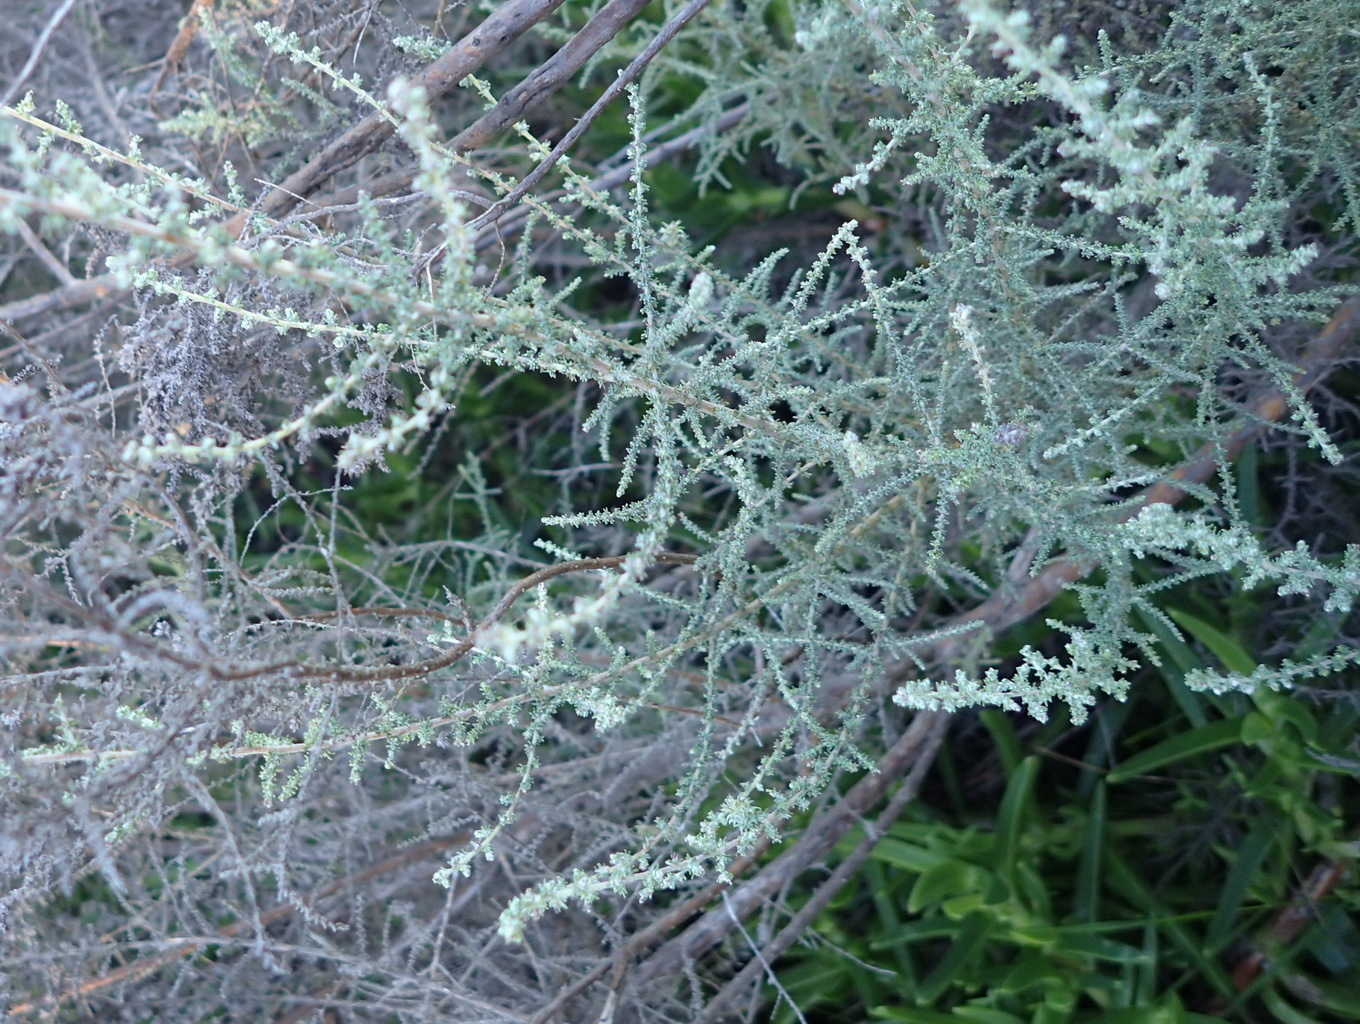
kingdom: Plantae
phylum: Tracheophyta
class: Magnoliopsida
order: Asterales
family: Asteraceae
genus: Seriphium
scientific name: Seriphium plumosum
